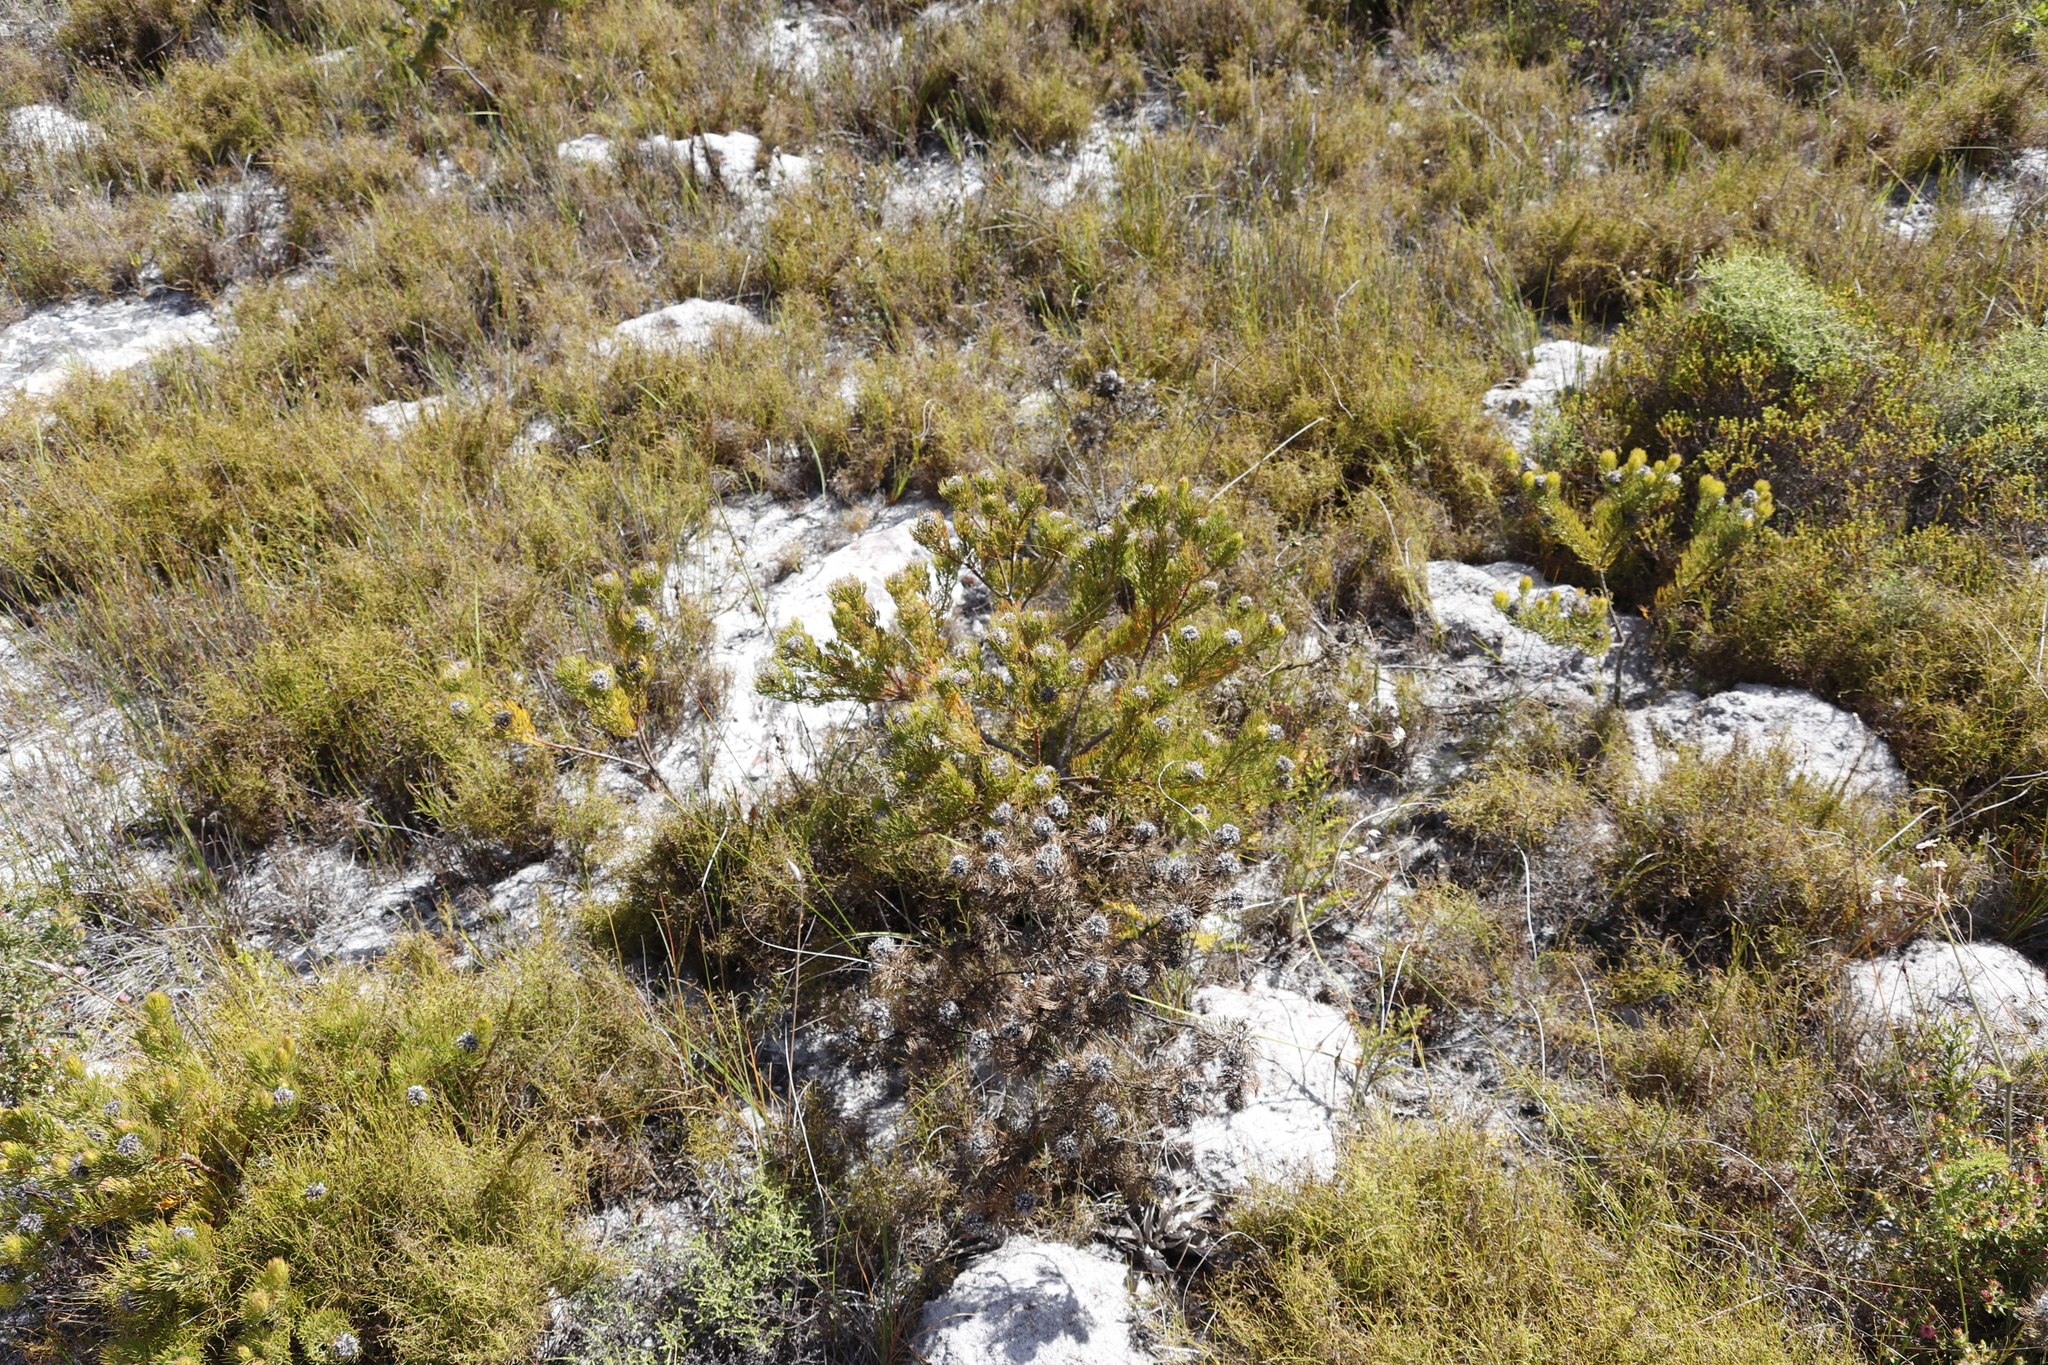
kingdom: Plantae
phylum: Tracheophyta
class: Magnoliopsida
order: Proteales
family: Proteaceae
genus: Serruria
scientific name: Serruria villosa
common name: Golden spiderhead
